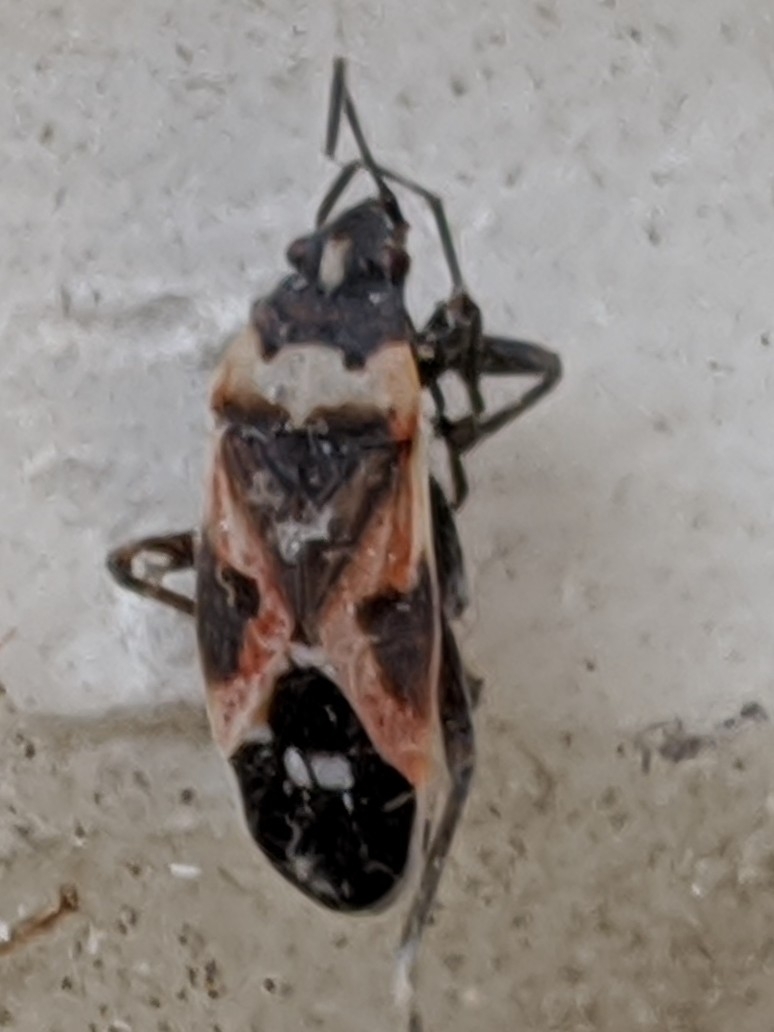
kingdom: Animalia
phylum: Arthropoda
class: Insecta
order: Hemiptera
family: Lygaeidae
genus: Lygaeus
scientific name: Lygaeus kalmii
